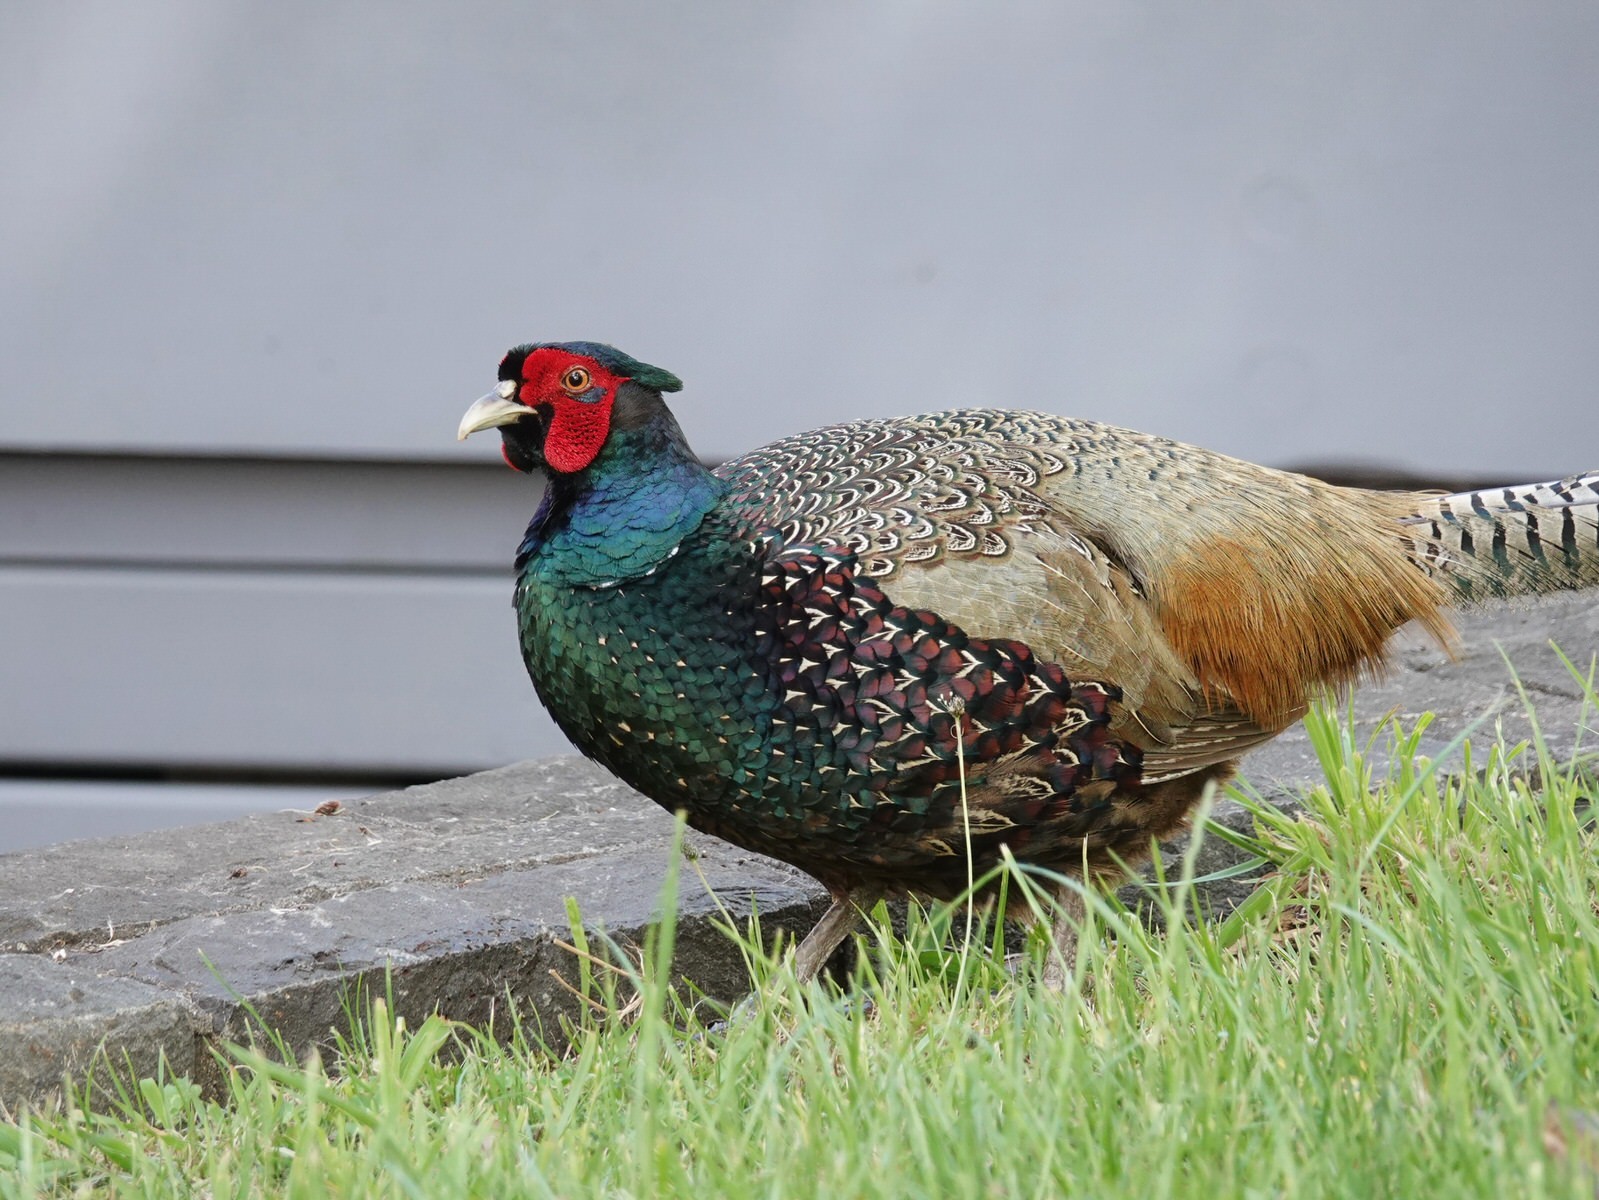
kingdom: Animalia
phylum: Chordata
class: Aves
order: Galliformes
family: Phasianidae
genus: Phasianus
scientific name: Phasianus colchicus
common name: Common pheasant
